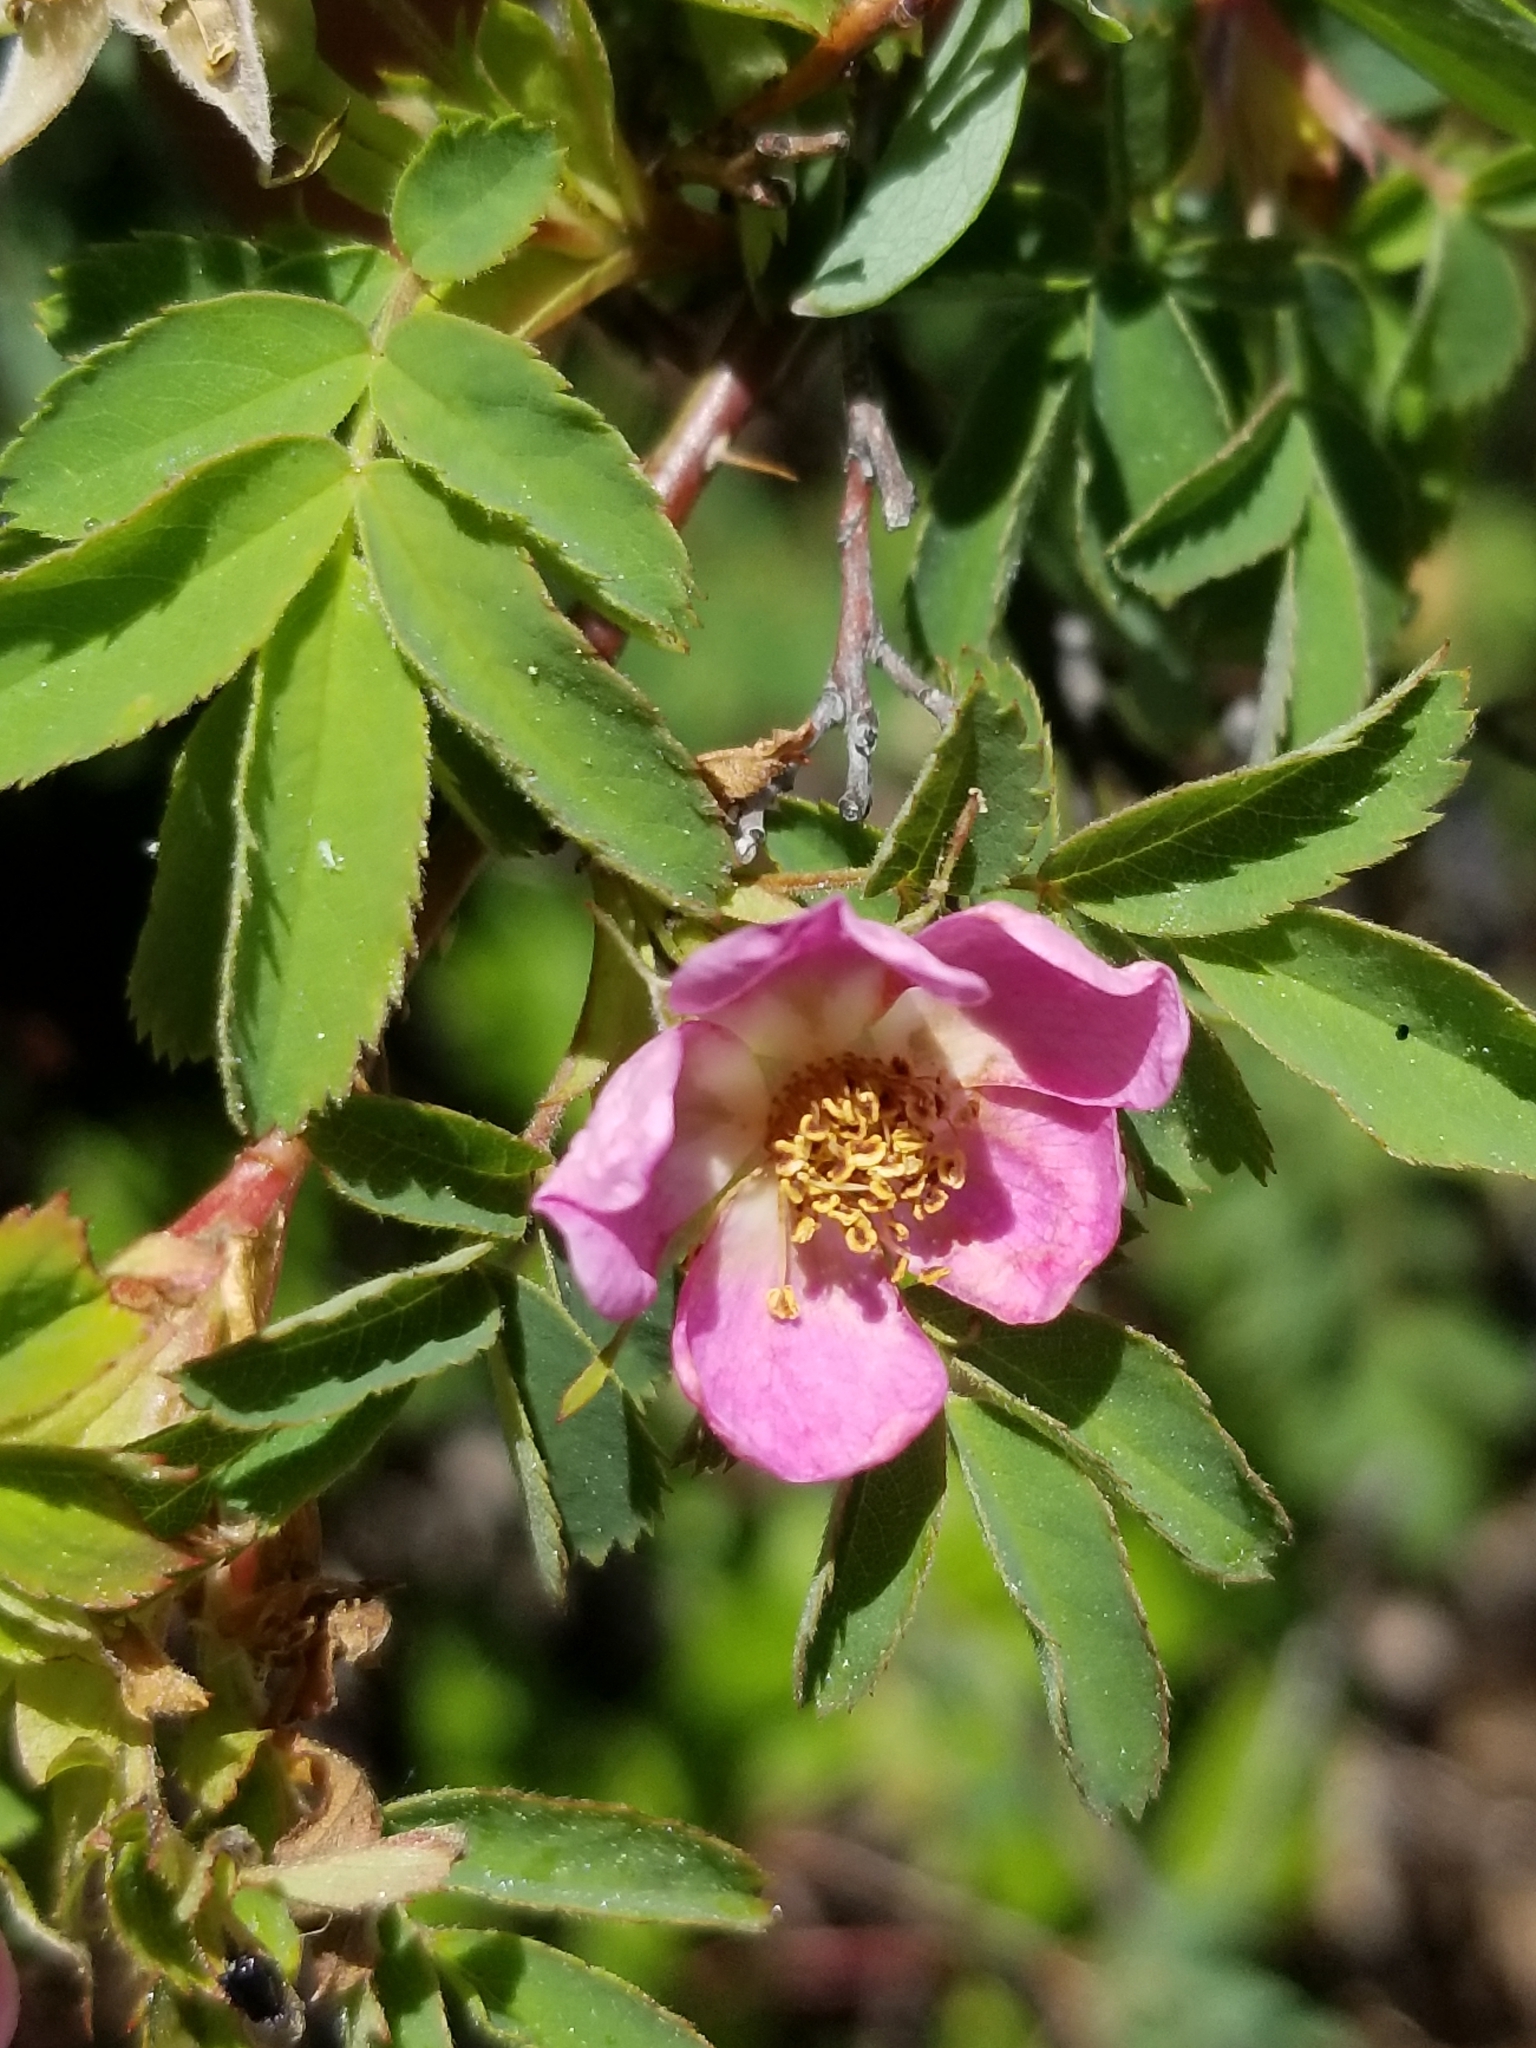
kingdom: Plantae
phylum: Tracheophyta
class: Magnoliopsida
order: Rosales
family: Rosaceae
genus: Rosa
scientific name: Rosa woodsii
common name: Woods's rose
